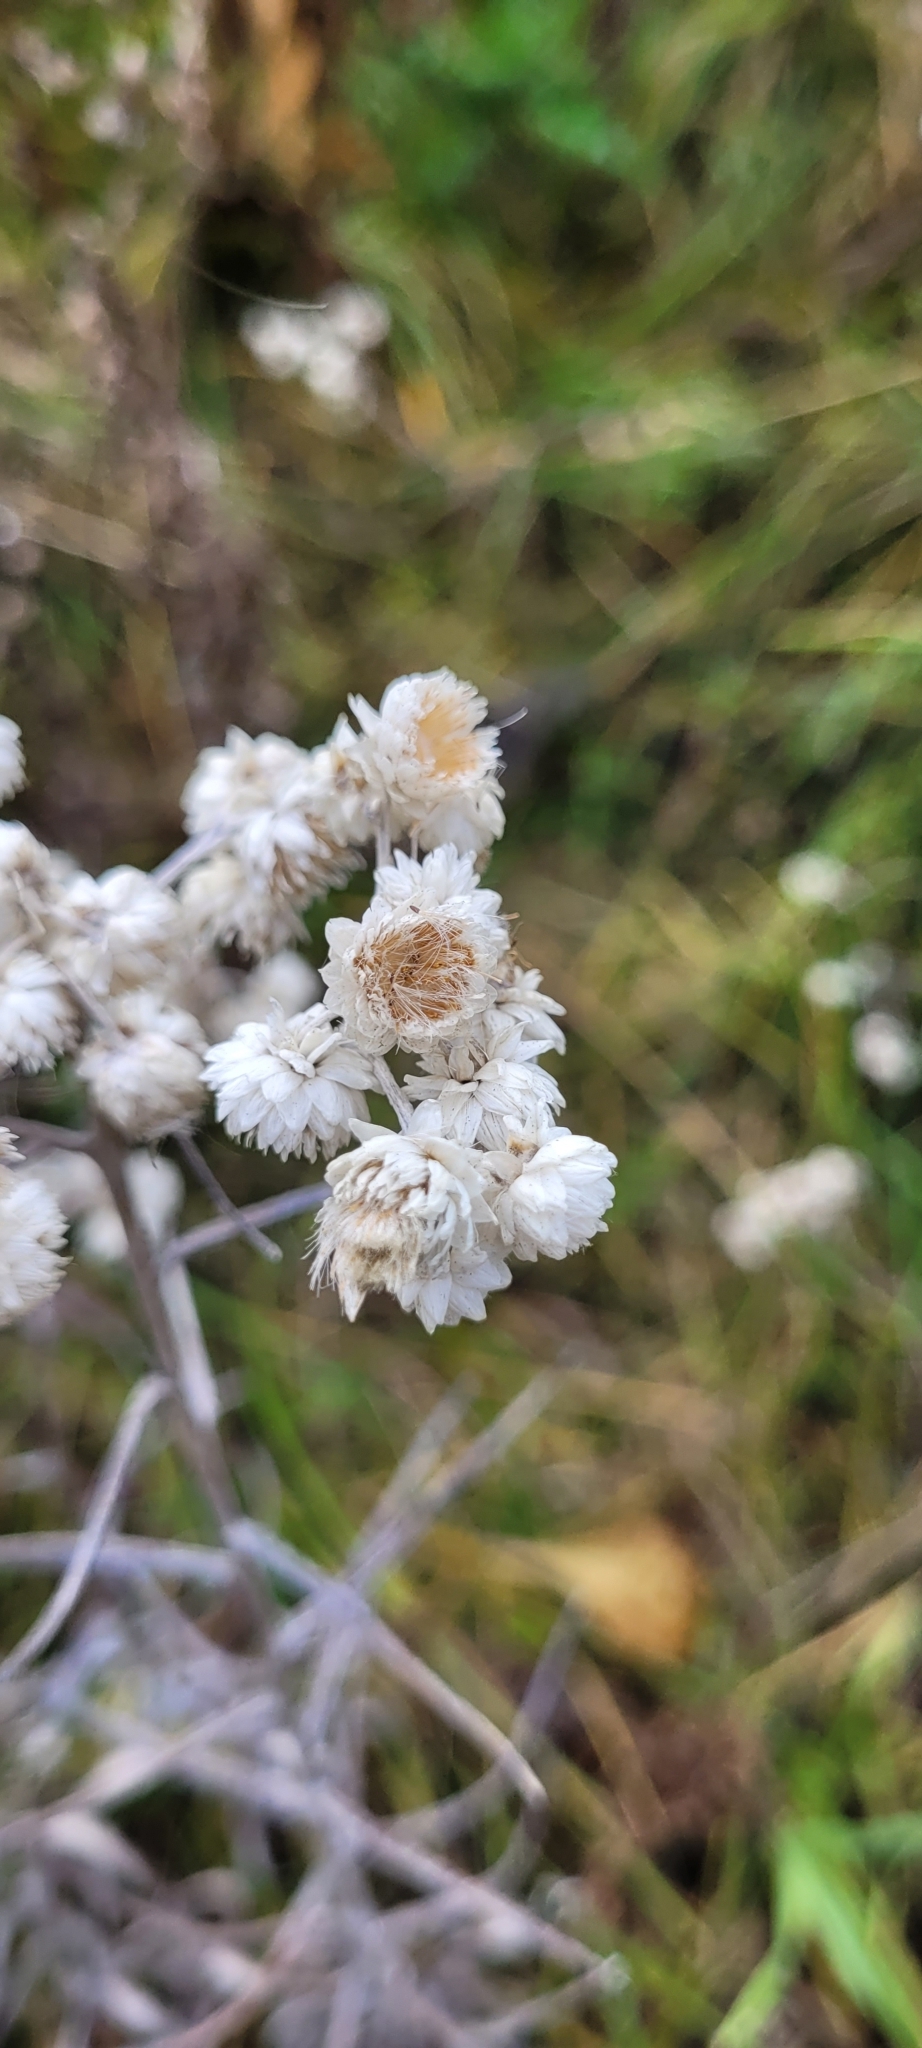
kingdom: Plantae
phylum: Tracheophyta
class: Magnoliopsida
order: Asterales
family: Asteraceae
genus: Anaphalis
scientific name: Anaphalis margaritacea
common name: Pearly everlasting
